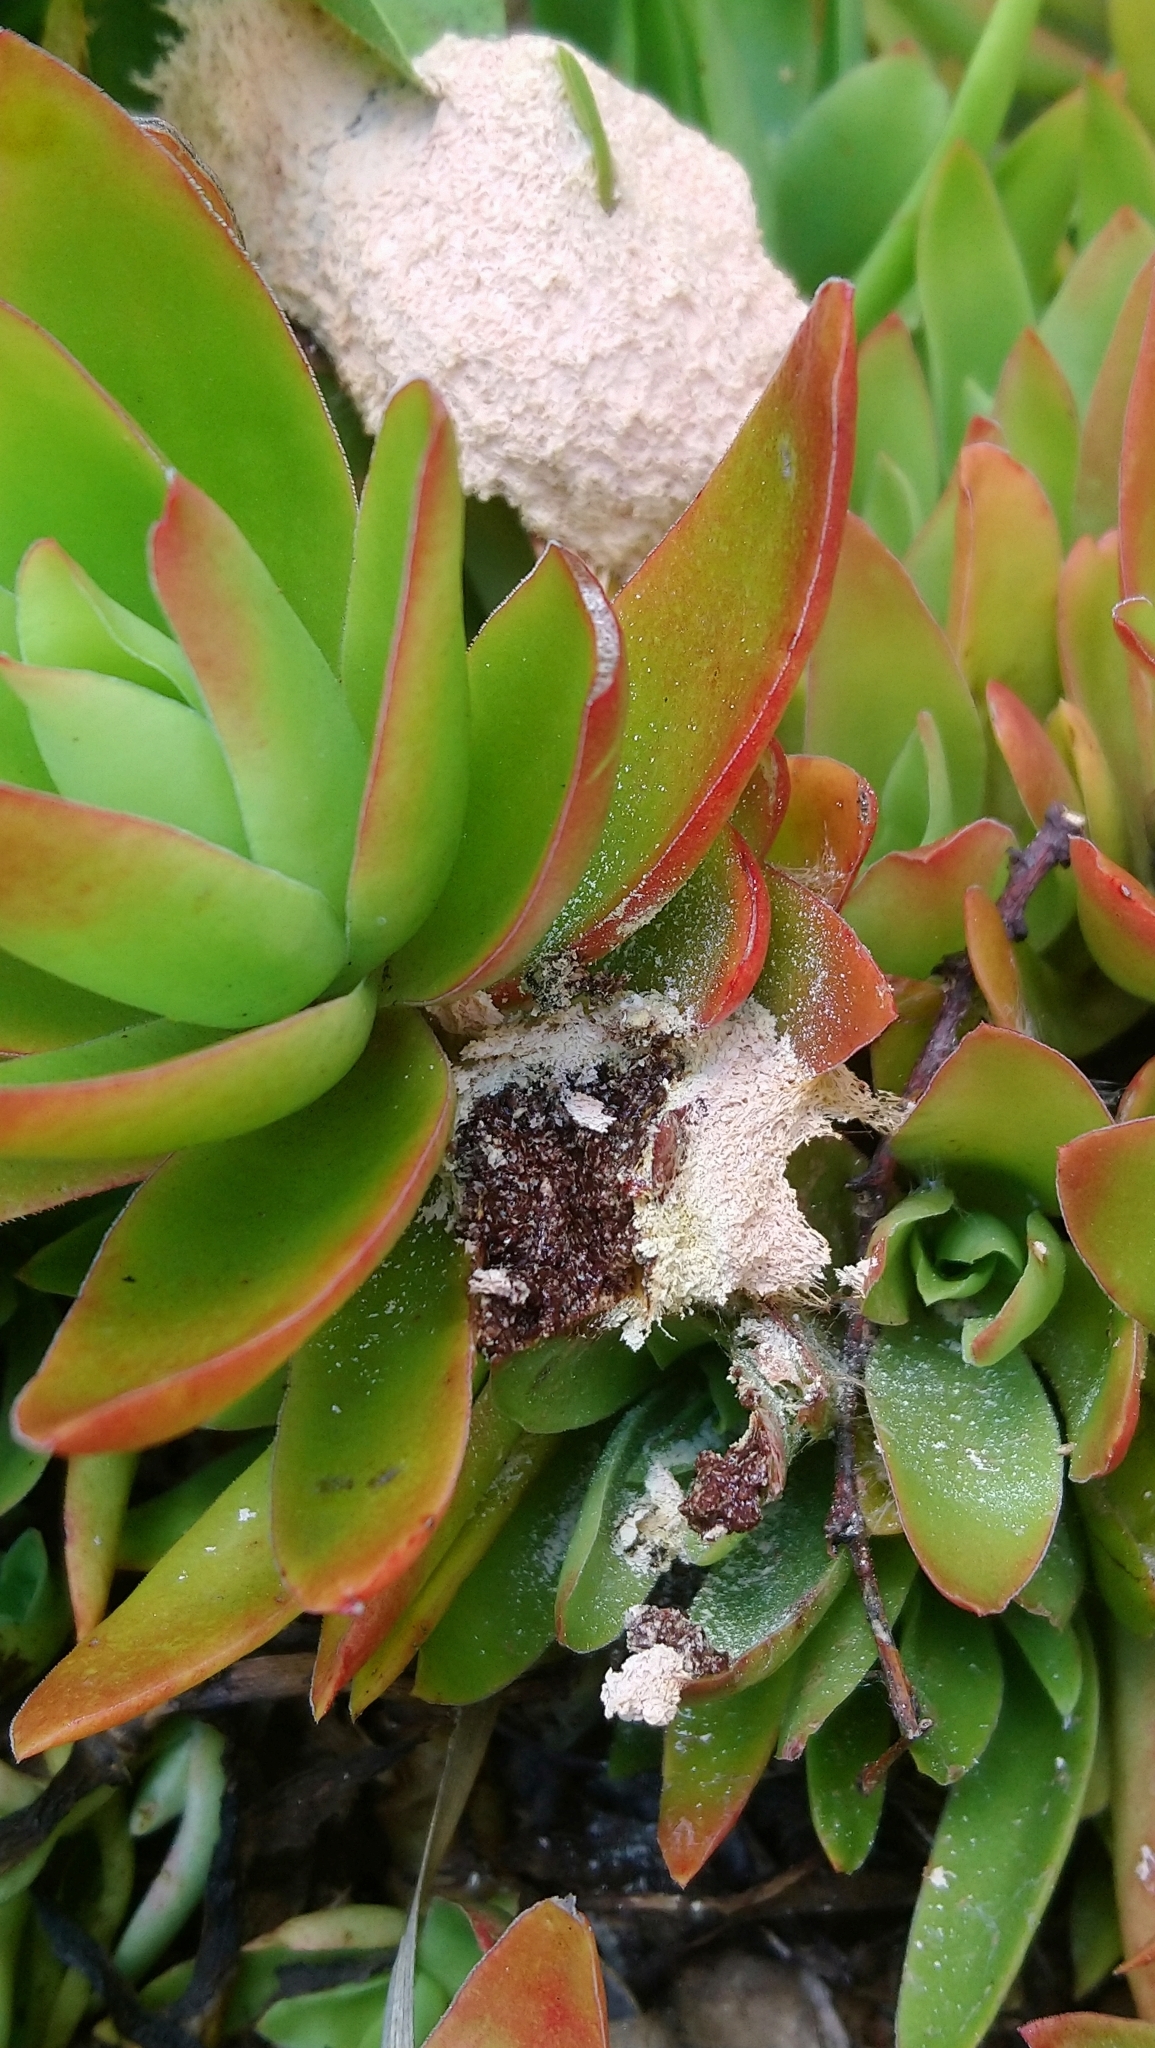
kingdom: Protozoa
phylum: Mycetozoa
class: Myxomycetes
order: Physarales
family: Physaraceae
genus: Fuligo
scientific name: Fuligo septica
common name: Dog vomit slime mold
